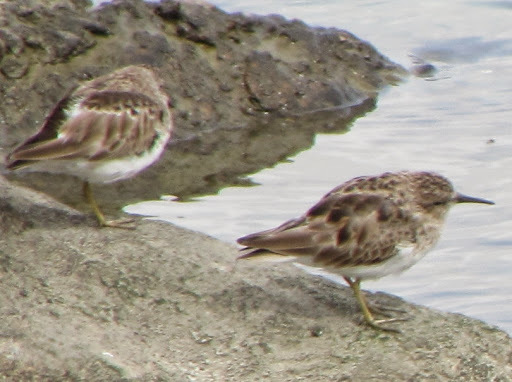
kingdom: Animalia
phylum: Chordata
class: Aves
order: Charadriiformes
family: Scolopacidae
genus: Calidris
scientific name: Calidris minutilla
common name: Least sandpiper
